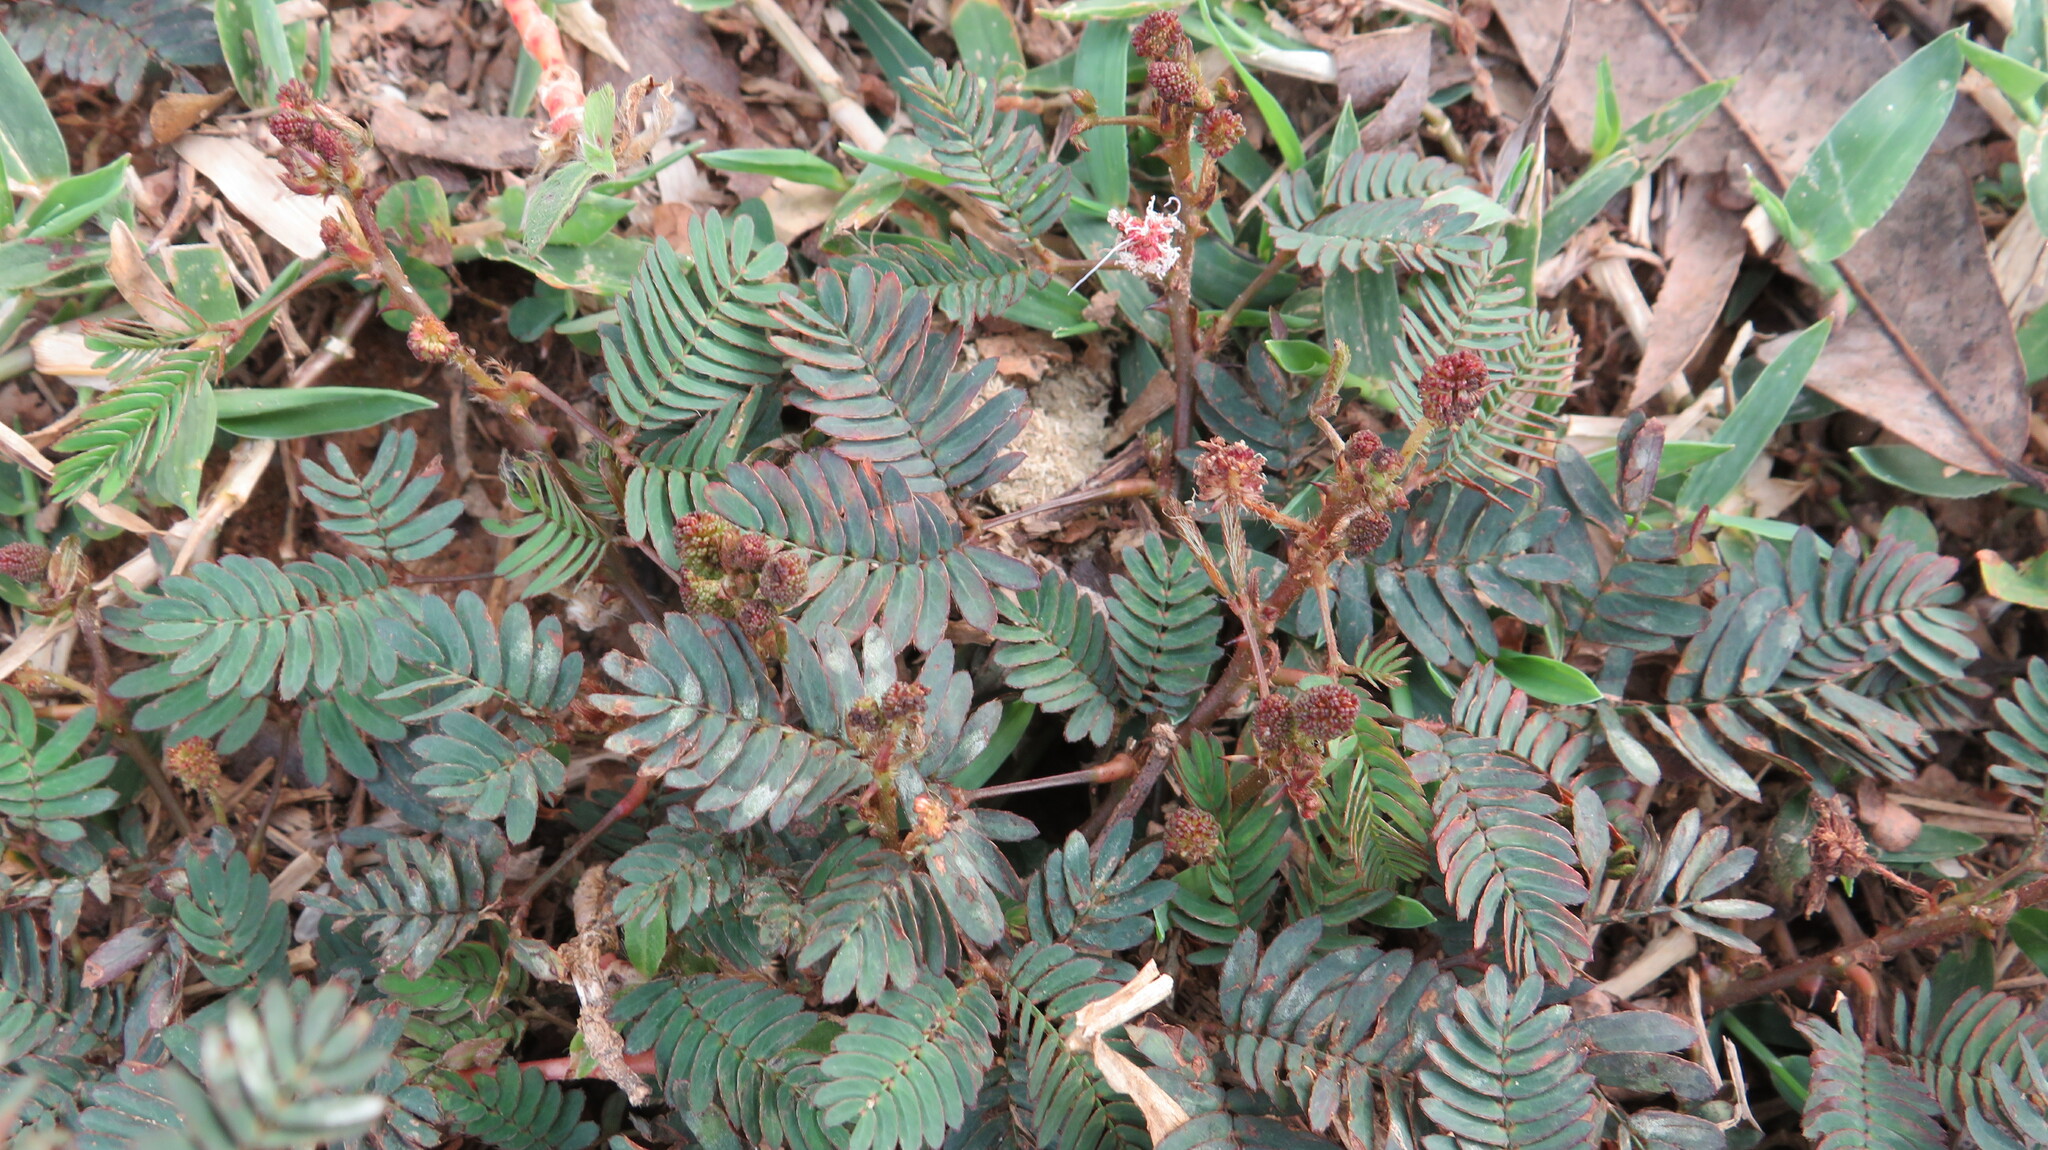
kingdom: Plantae
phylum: Tracheophyta
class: Magnoliopsida
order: Fabales
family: Fabaceae
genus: Mimosa
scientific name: Mimosa pudica
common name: Sensitive plant
